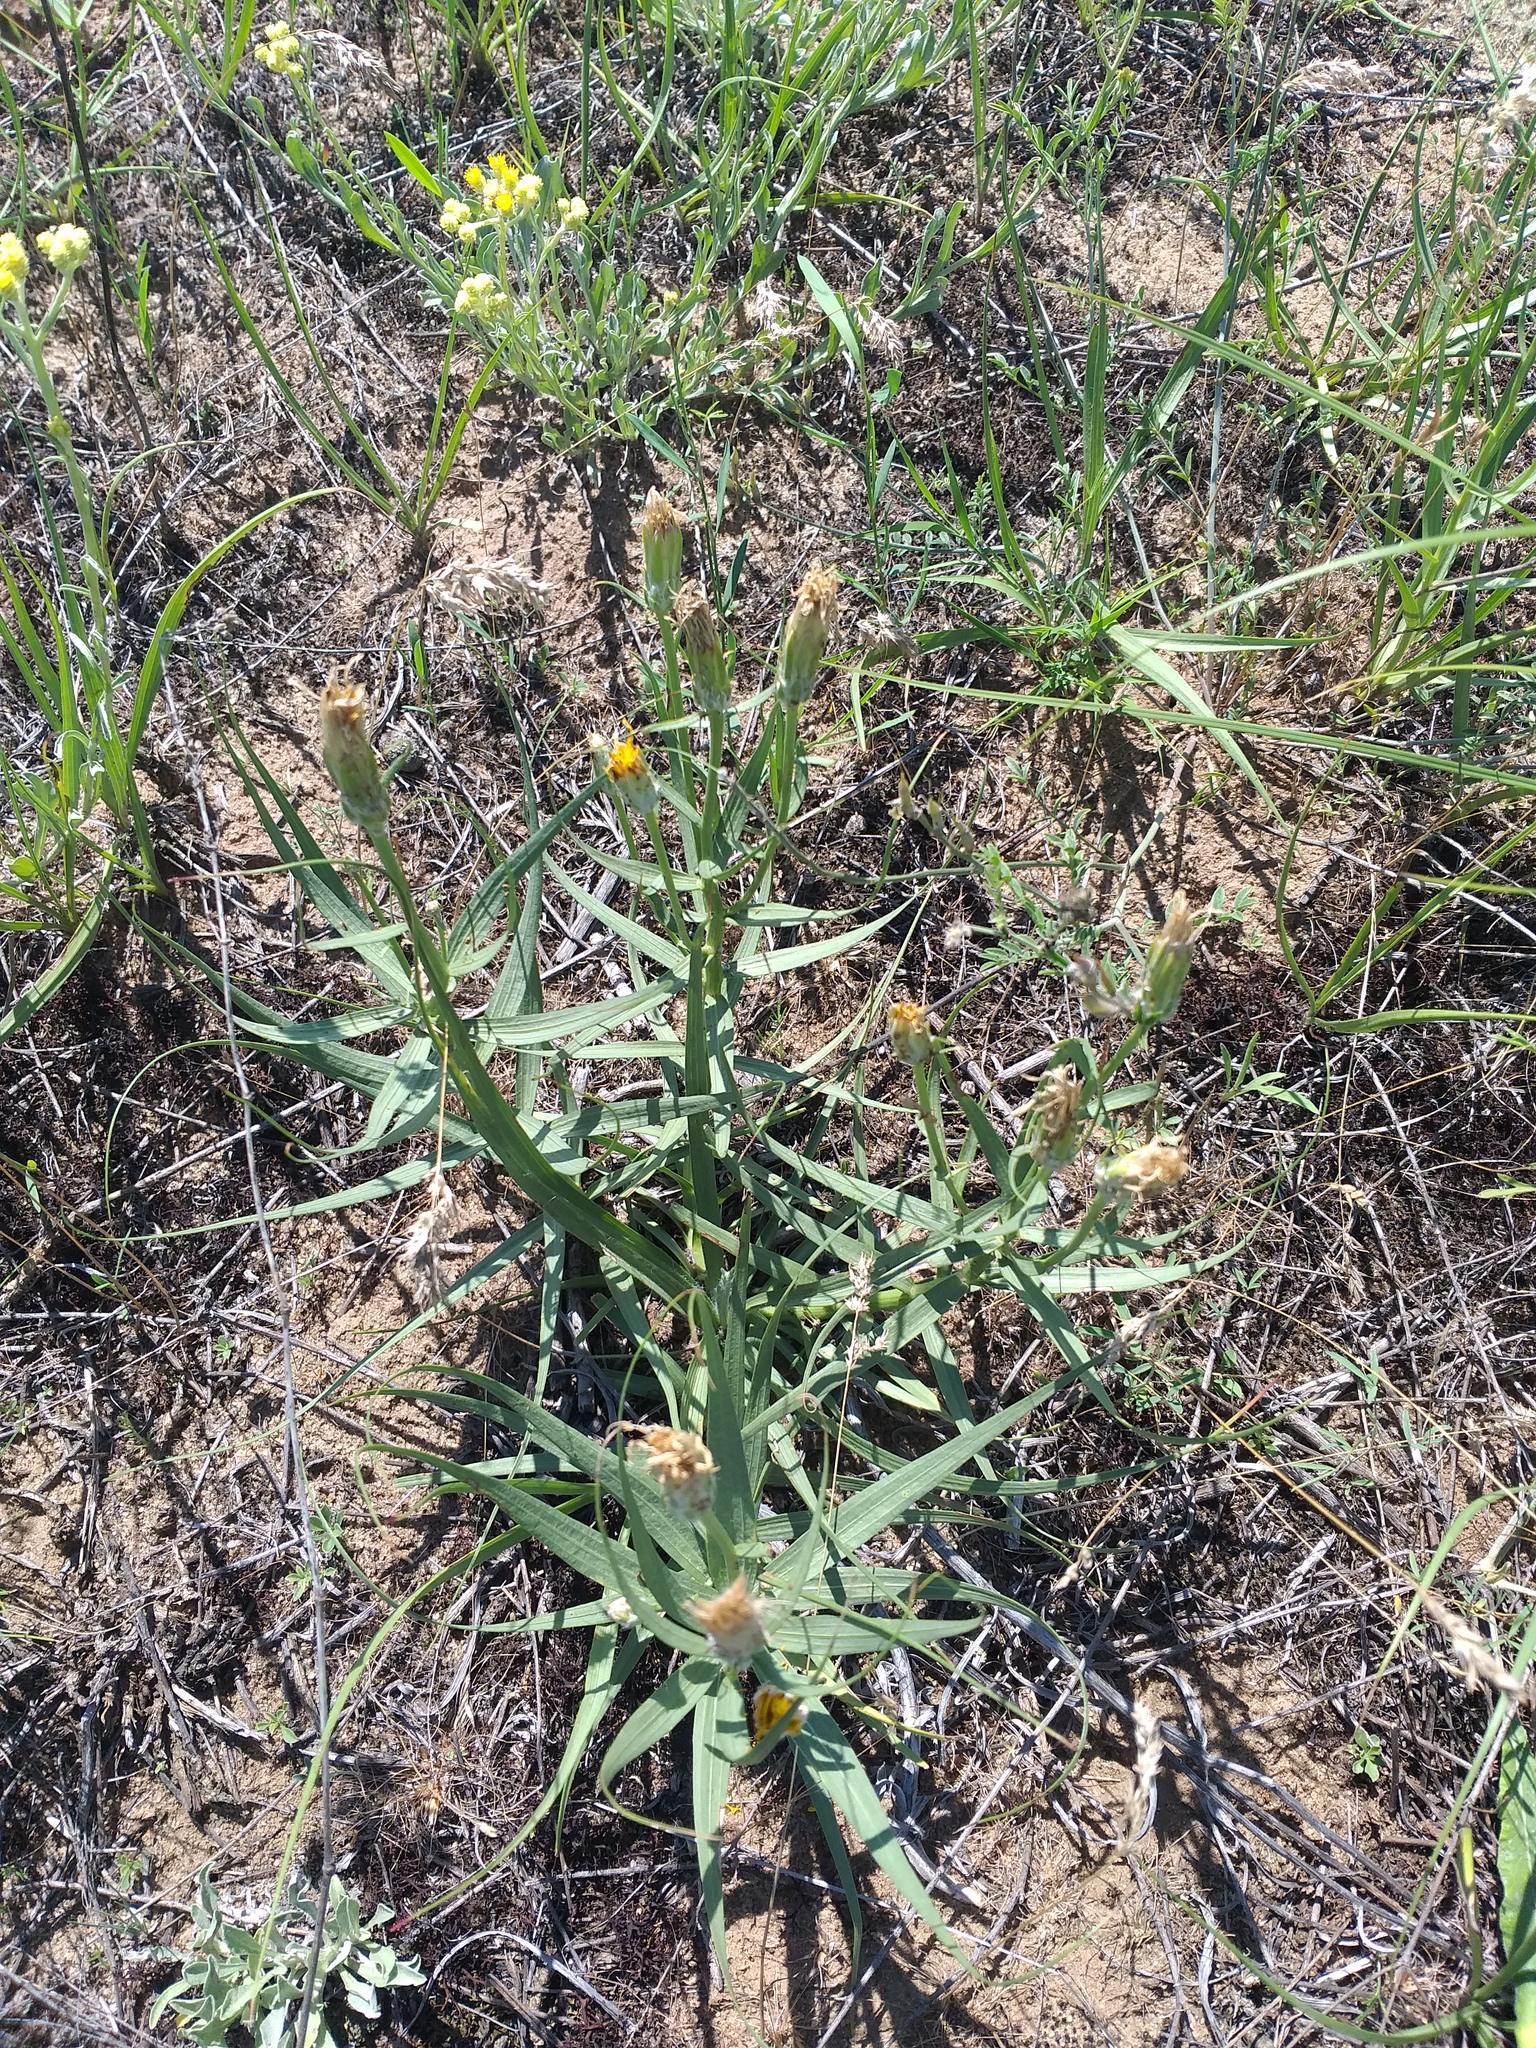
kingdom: Plantae
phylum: Tracheophyta
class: Magnoliopsida
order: Asterales
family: Asteraceae
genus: Gelasia
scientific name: Gelasia ensifolia
